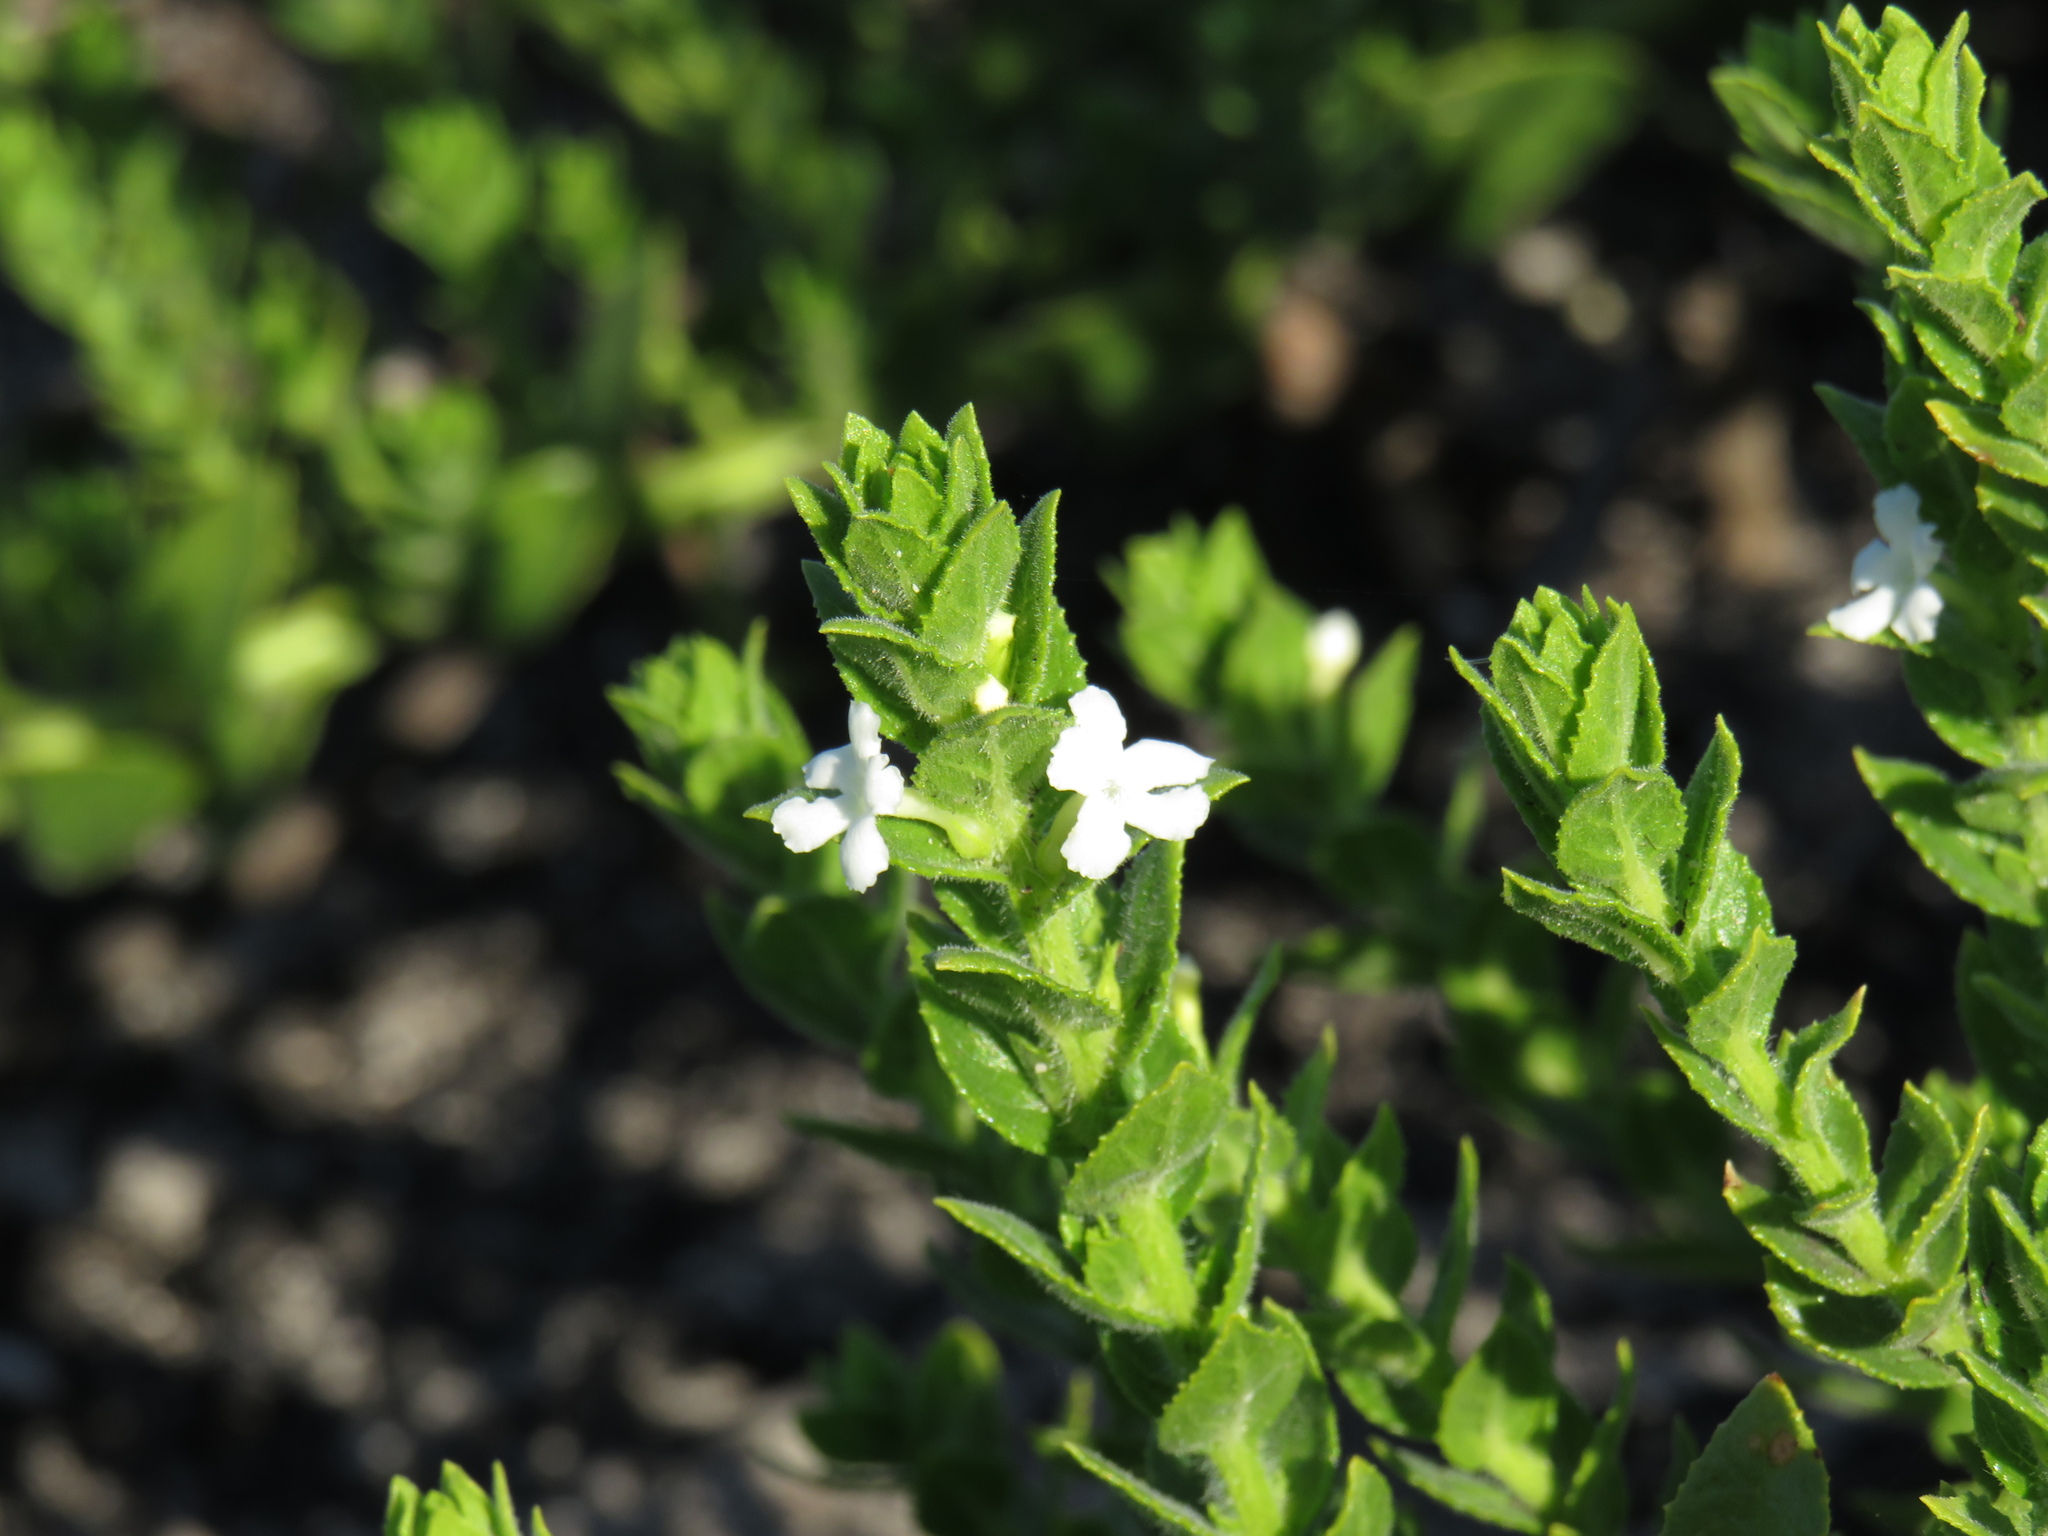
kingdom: Plantae
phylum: Tracheophyta
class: Magnoliopsida
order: Lamiales
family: Scrophulariaceae
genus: Oftia
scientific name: Oftia africana
